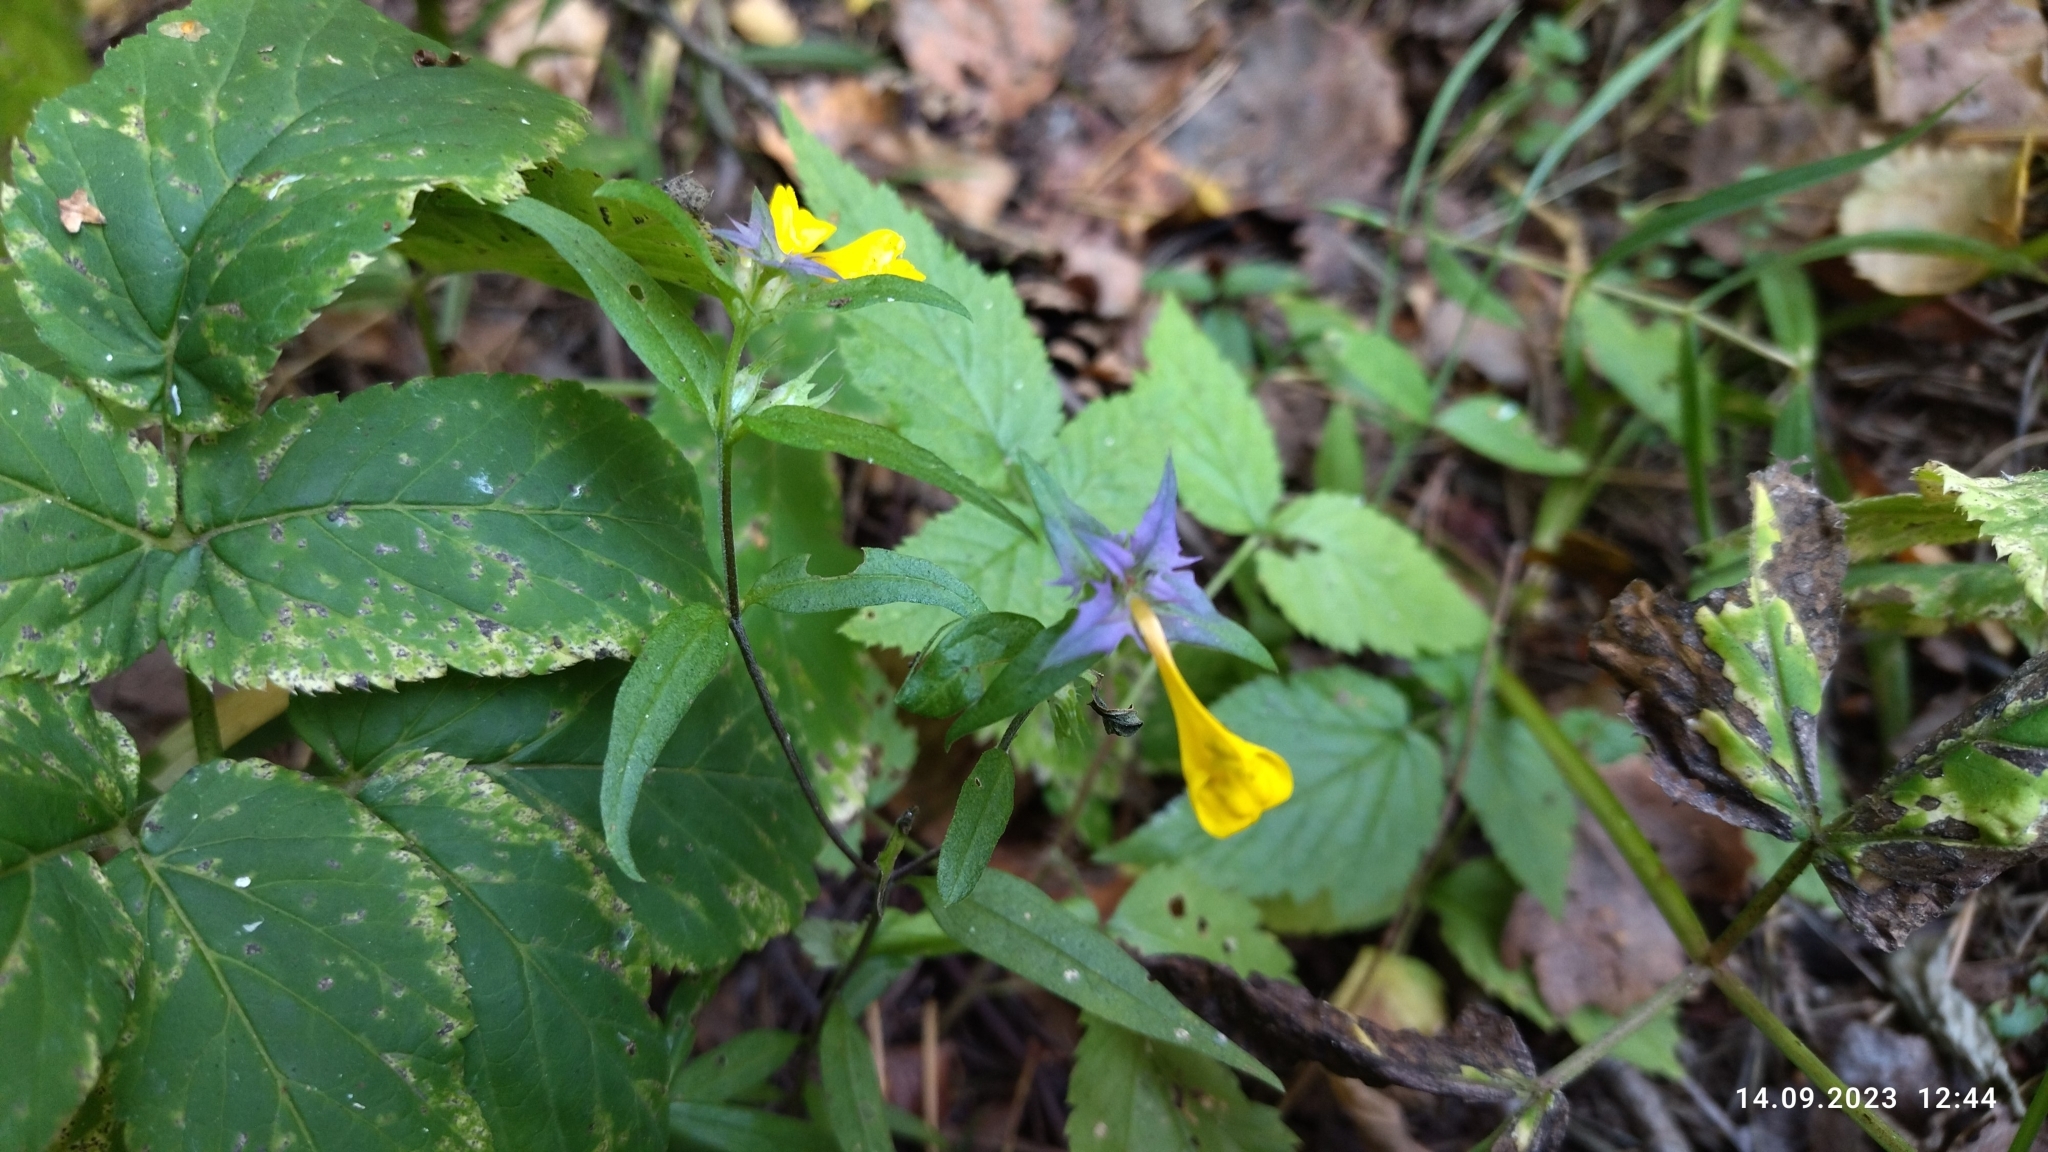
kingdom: Plantae
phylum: Tracheophyta
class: Magnoliopsida
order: Lamiales
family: Orobanchaceae
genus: Melampyrum
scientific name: Melampyrum nemorosum
